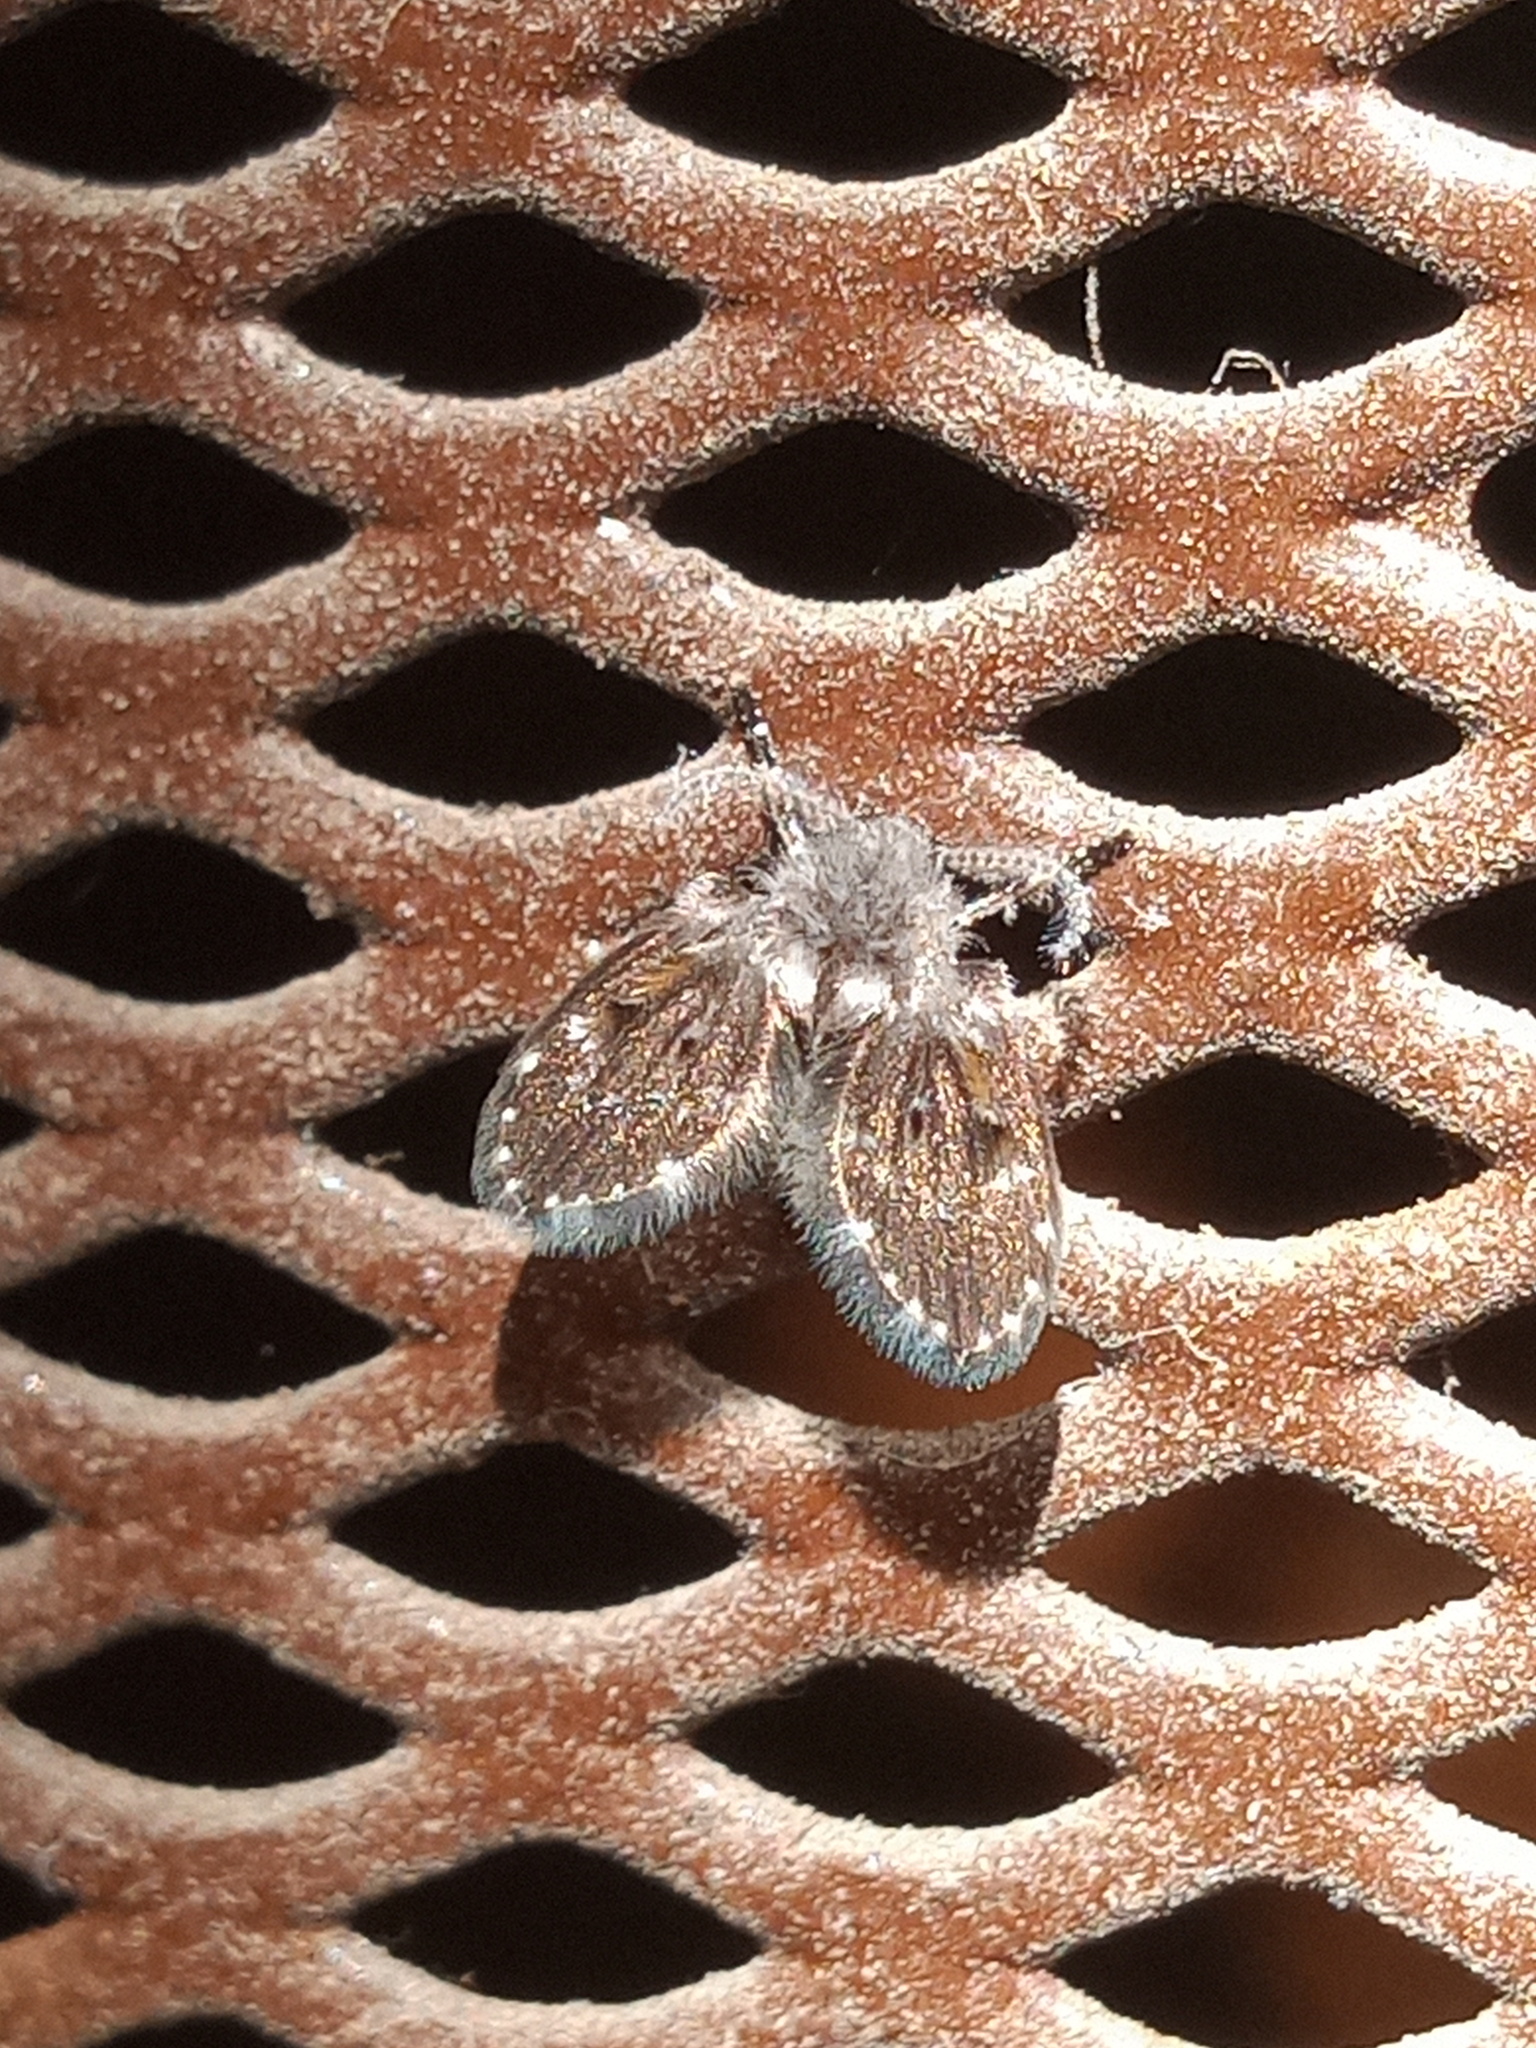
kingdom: Animalia
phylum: Arthropoda
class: Insecta
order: Diptera
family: Psychodidae
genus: Clogmia
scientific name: Clogmia albipunctatus
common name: White-spotted moth fly
